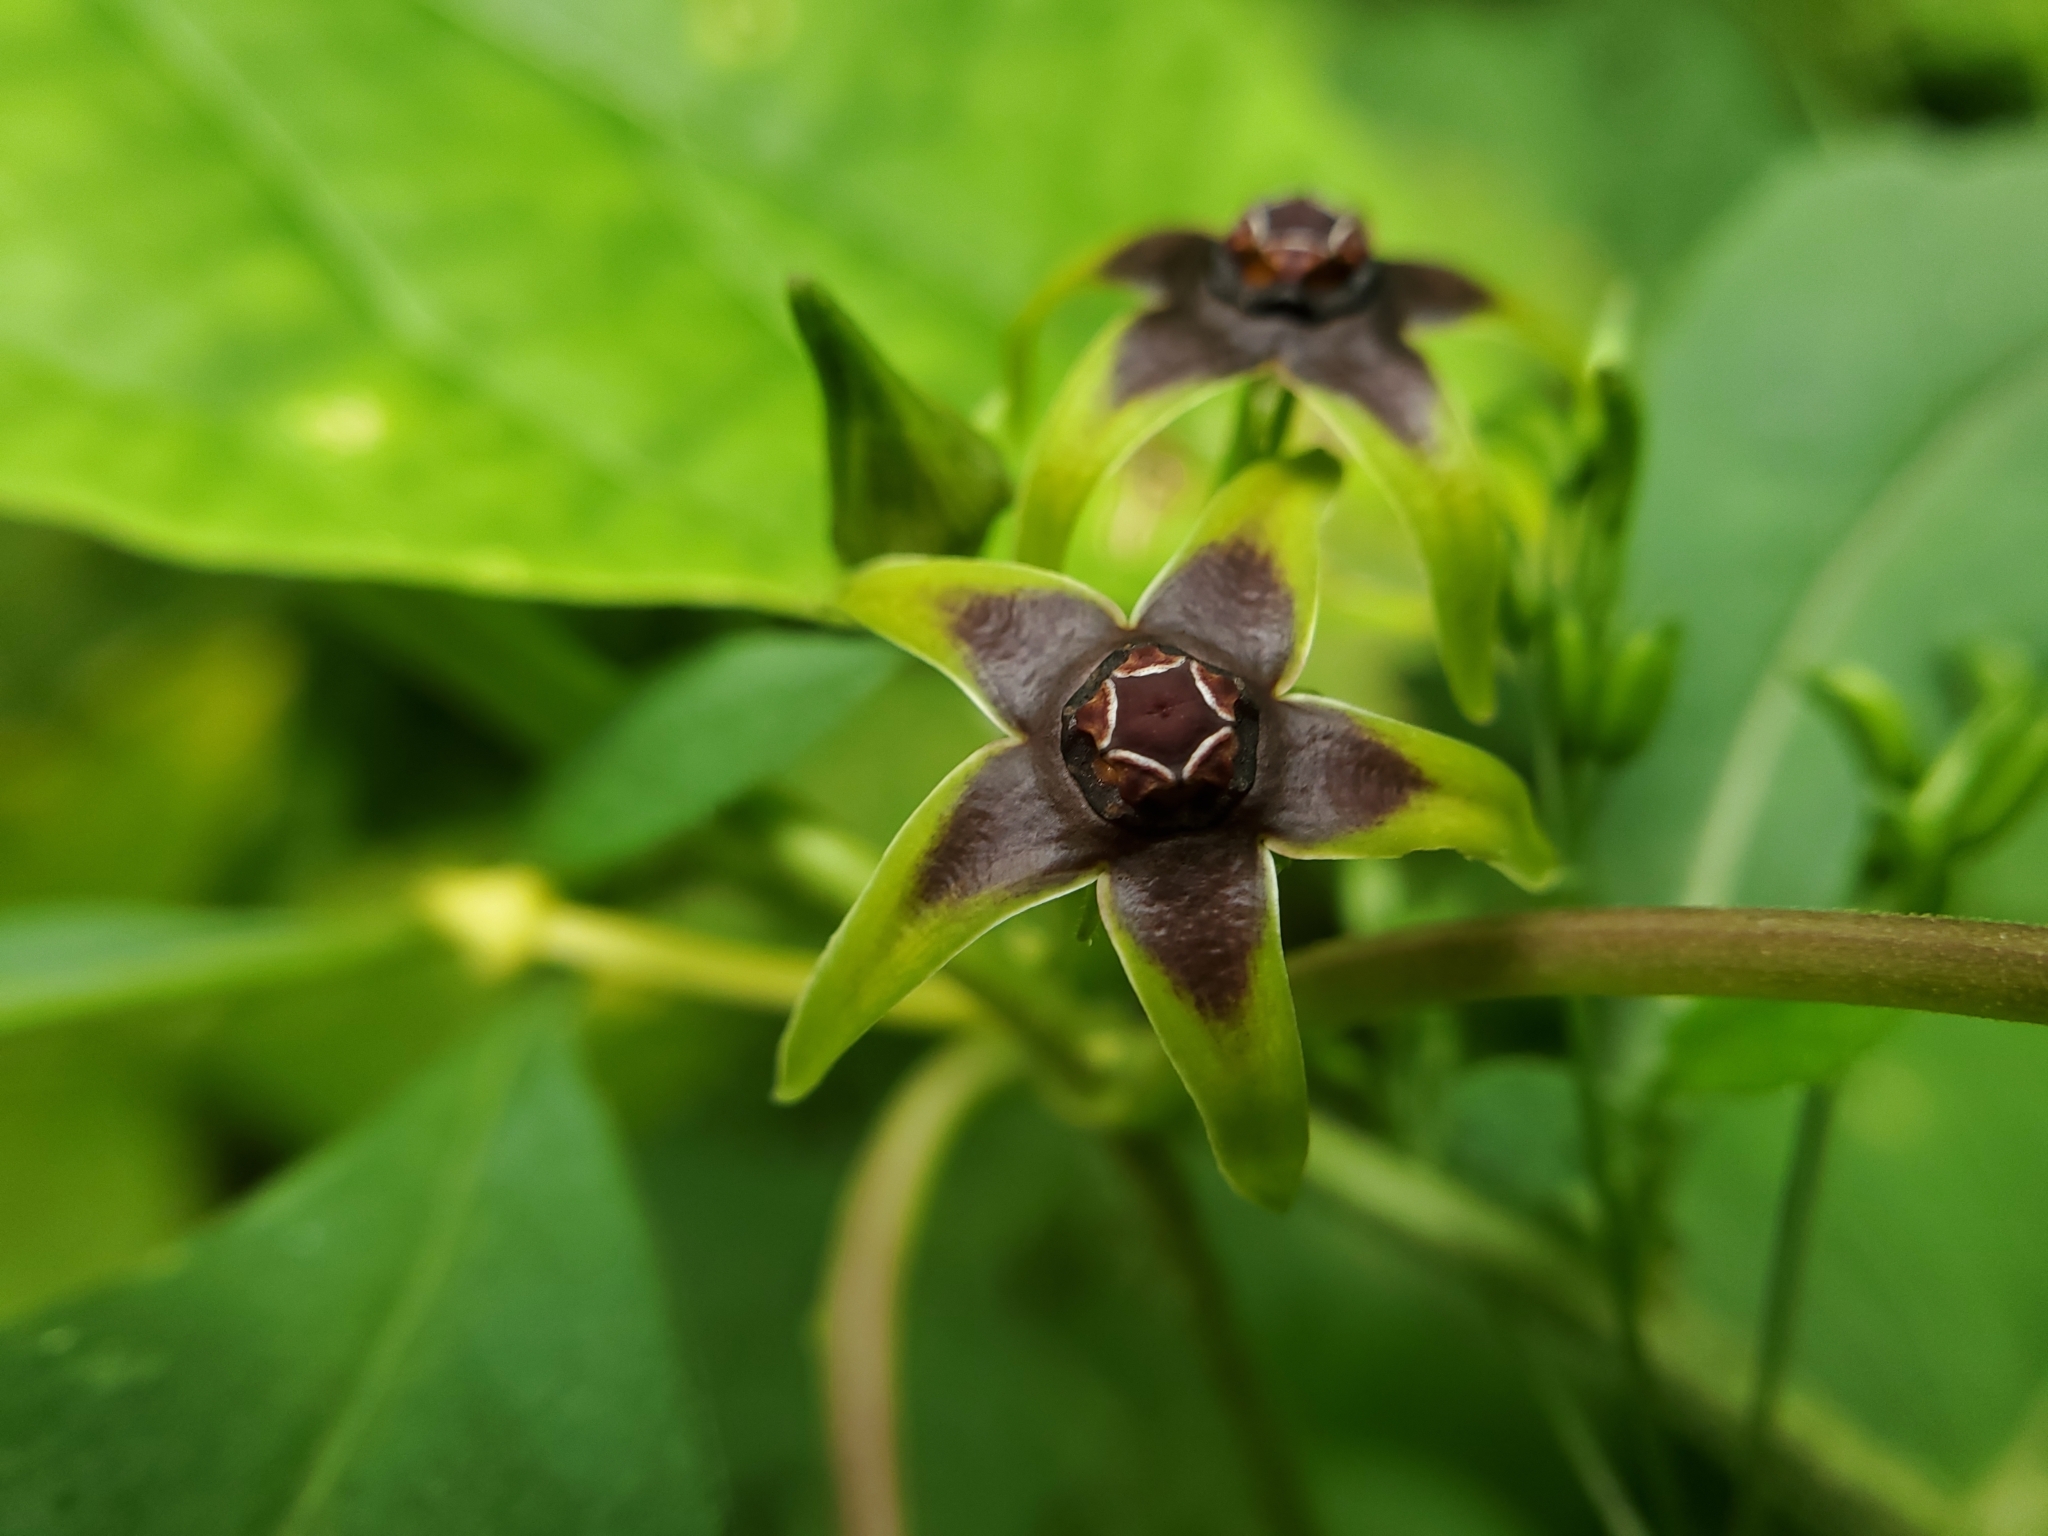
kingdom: Plantae
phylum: Tracheophyta
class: Magnoliopsida
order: Gentianales
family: Apocynaceae
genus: Gonolobus
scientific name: Gonolobus suberosus
